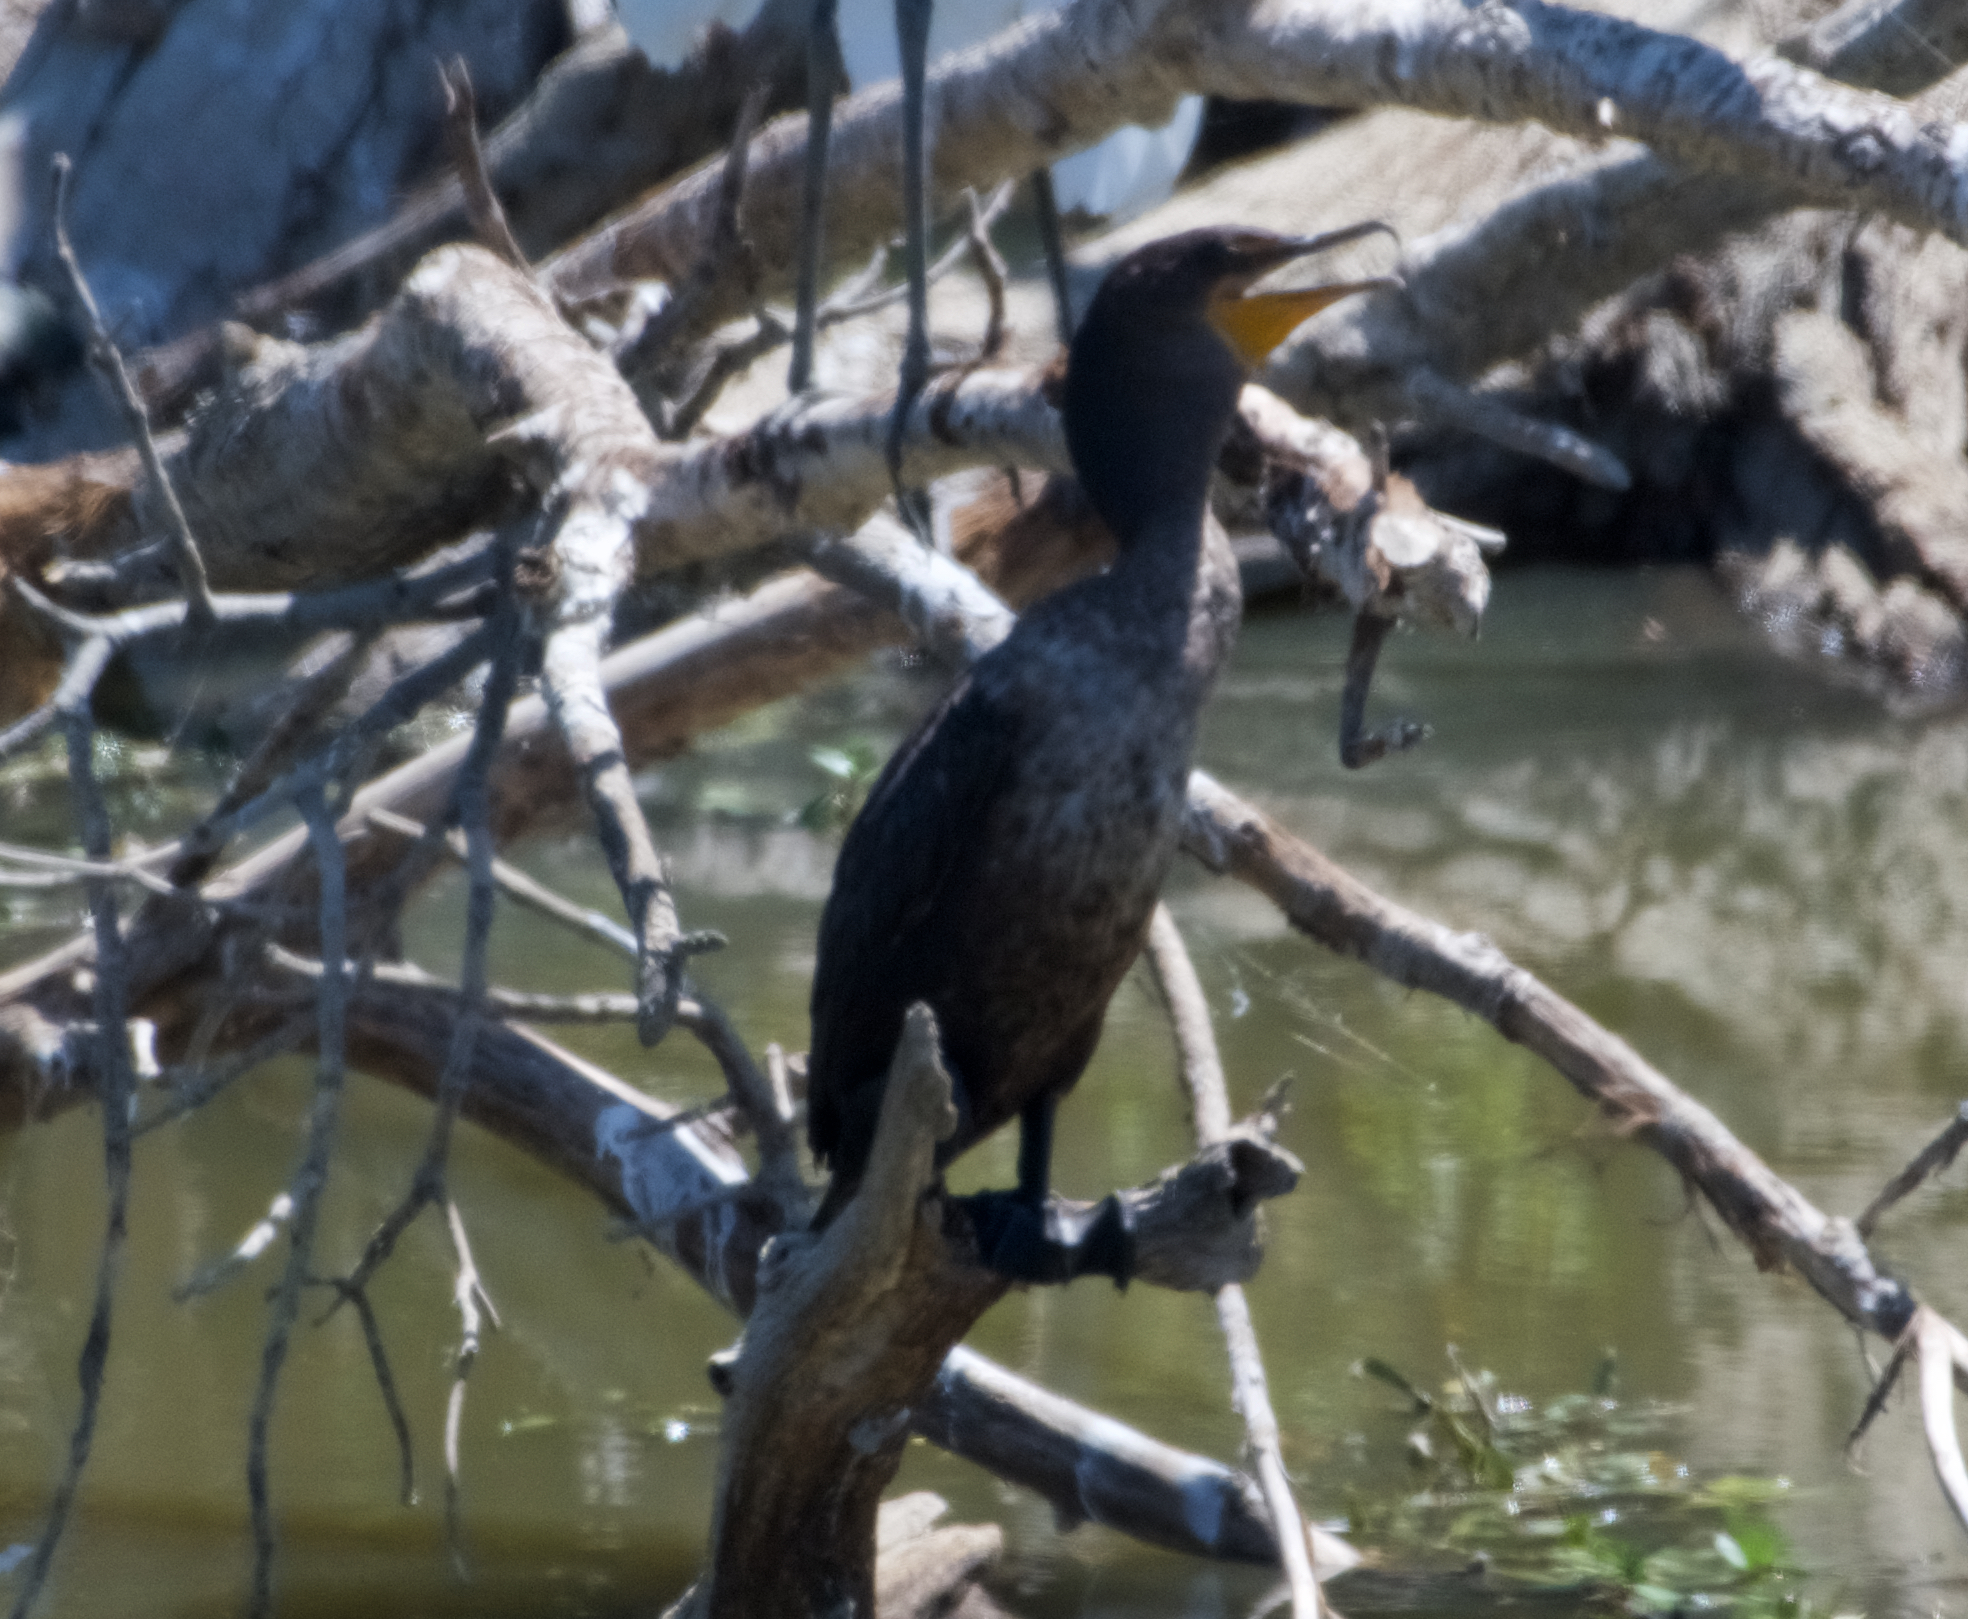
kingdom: Animalia
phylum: Chordata
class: Aves
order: Suliformes
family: Phalacrocoracidae
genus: Phalacrocorax
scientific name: Phalacrocorax auritus
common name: Double-crested cormorant
